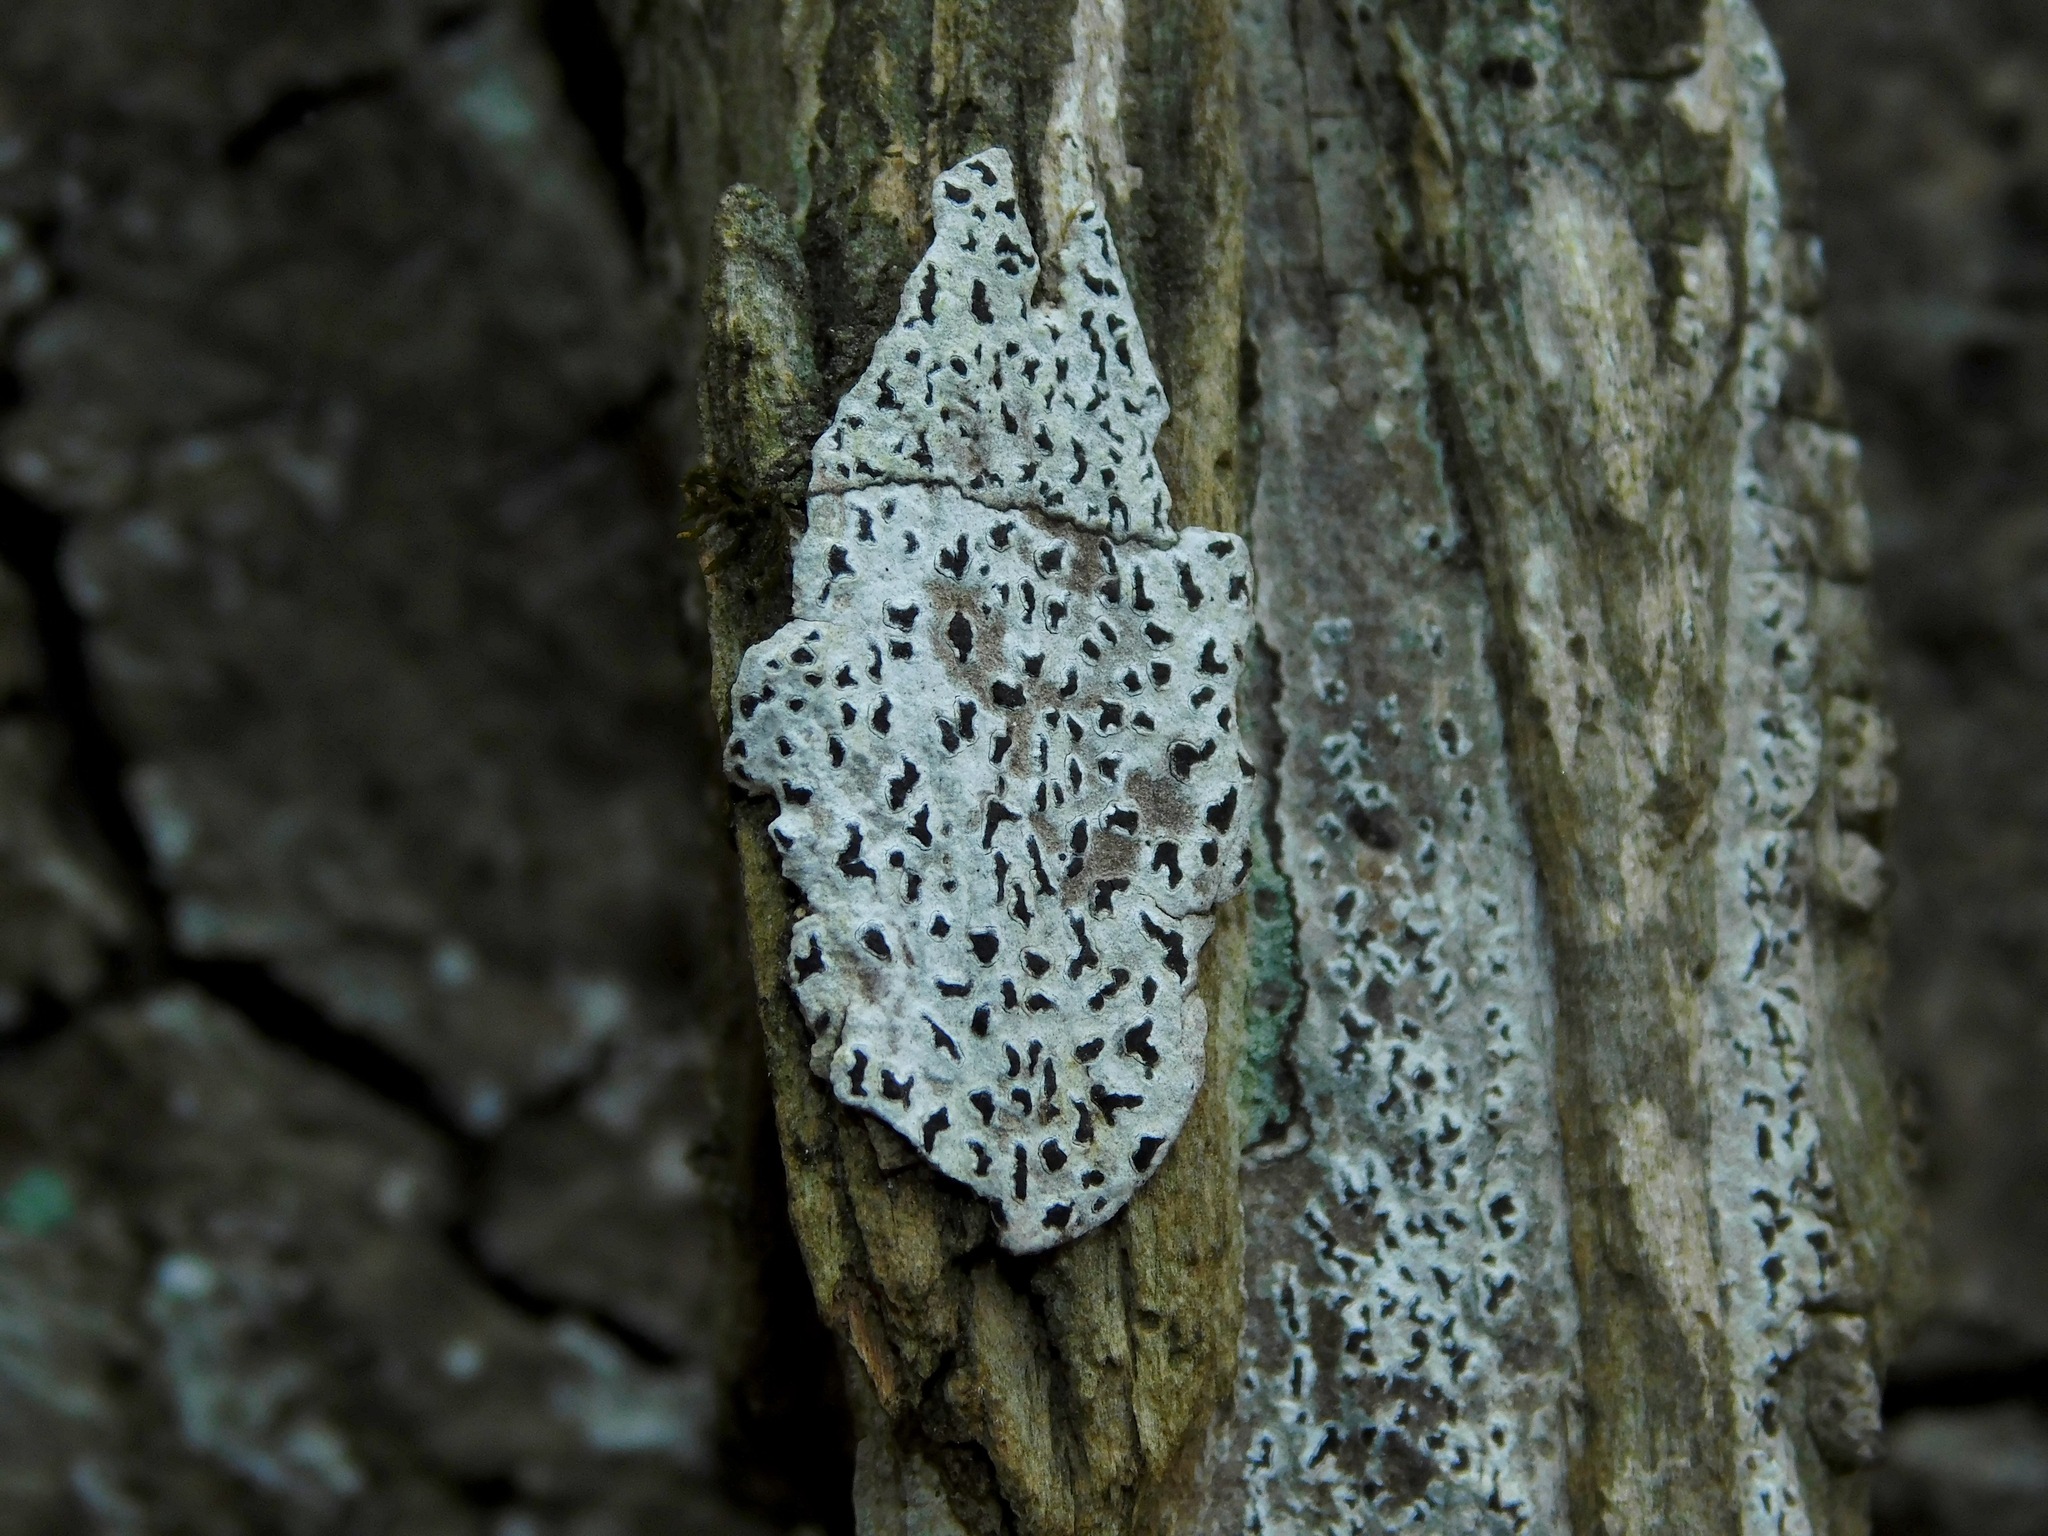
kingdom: Fungi
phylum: Ascomycota
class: Arthoniomycetes
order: Arthoniales
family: Arthoniaceae
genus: Arthonia
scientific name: Arthonia susa
